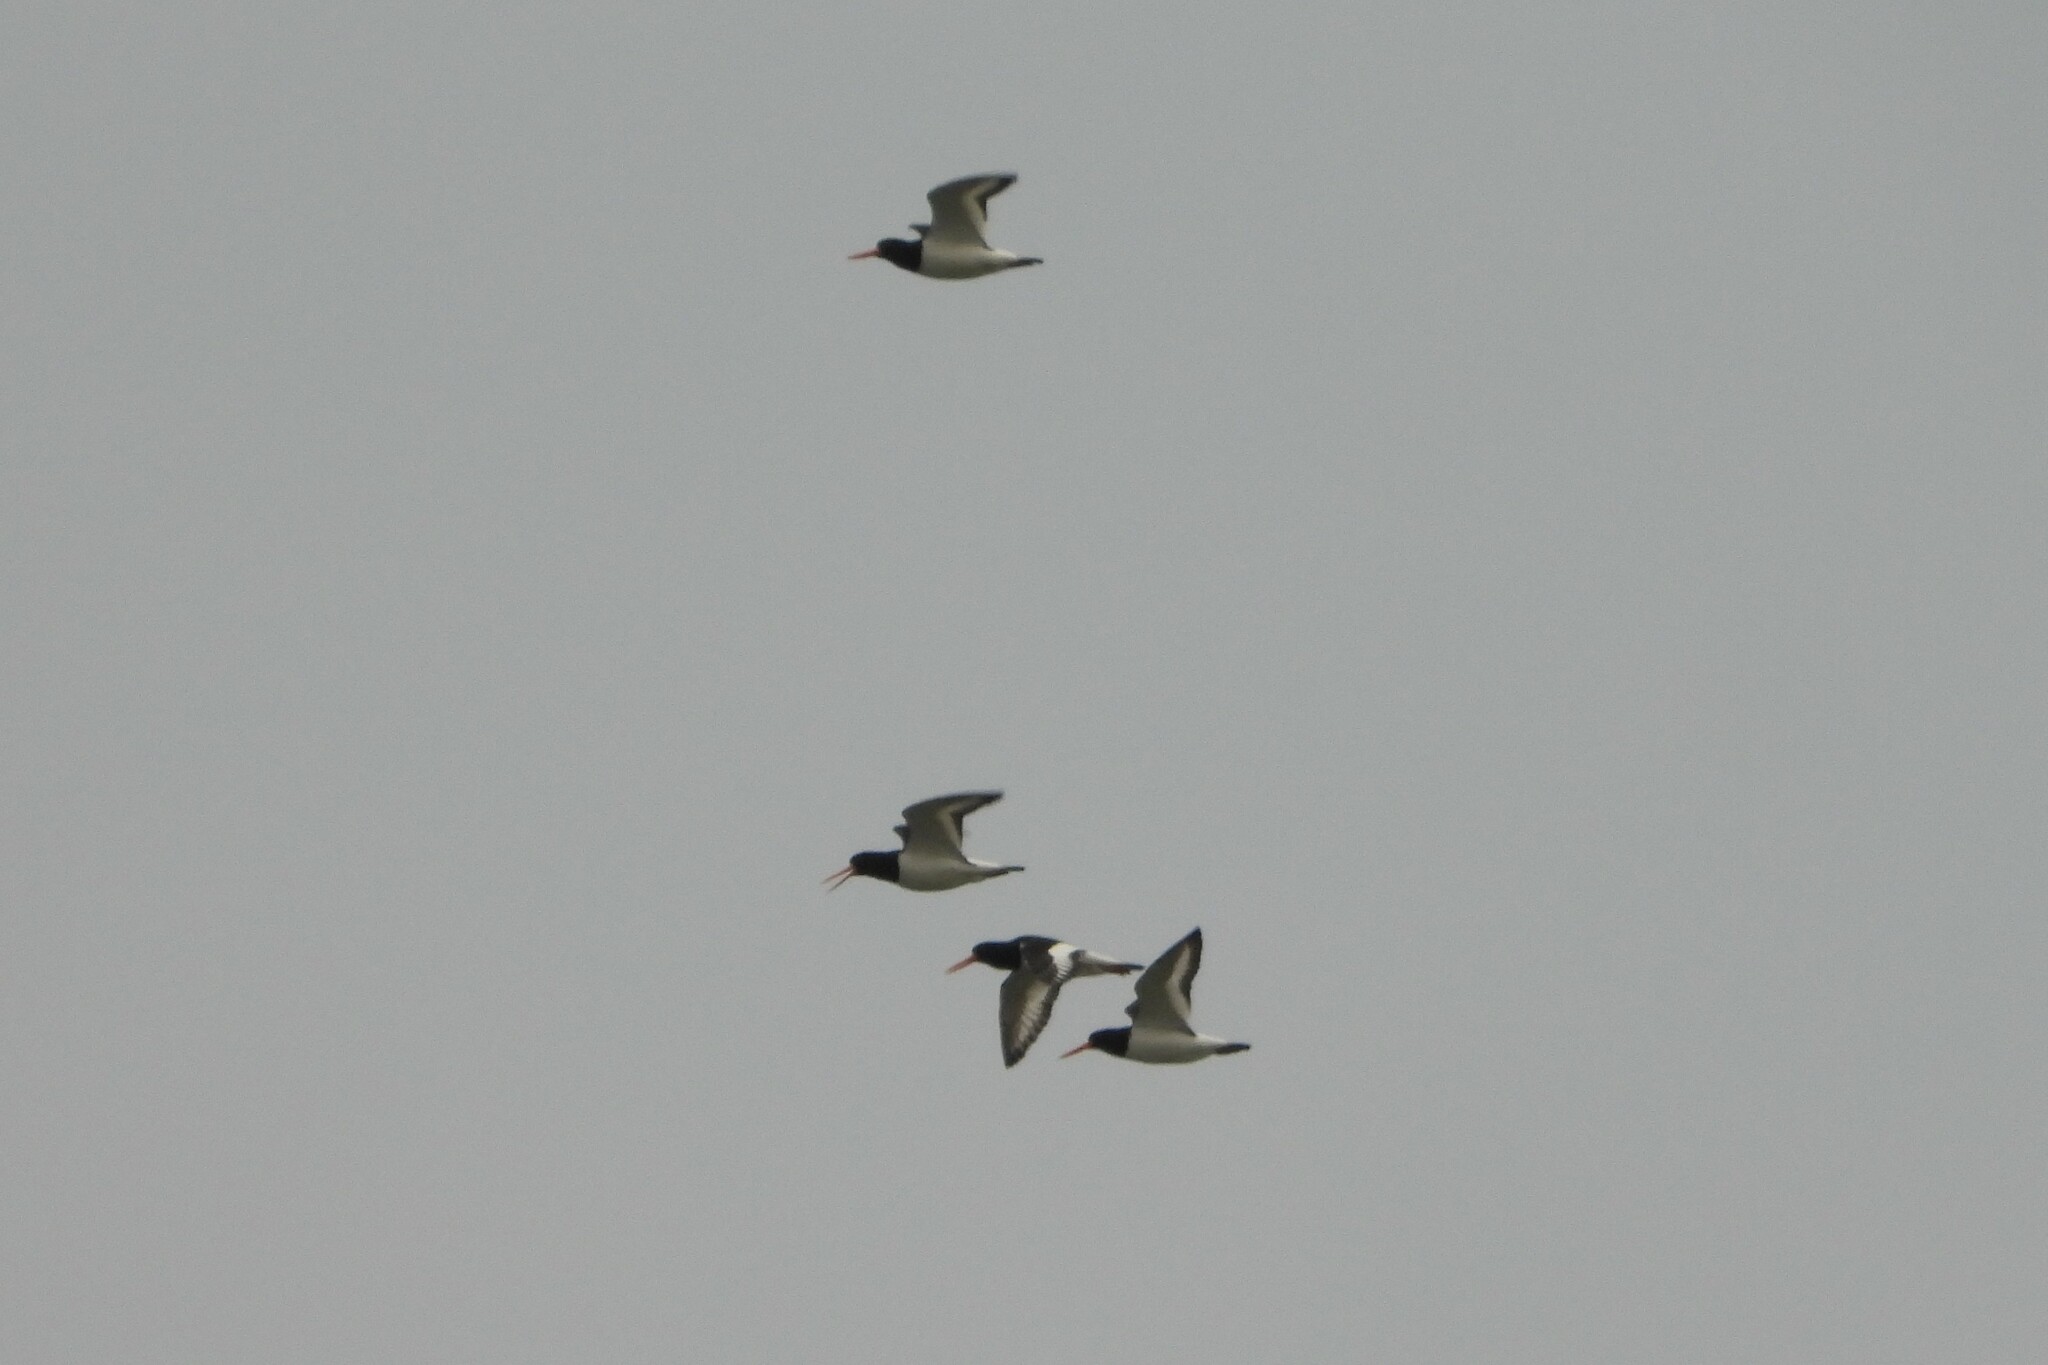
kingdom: Animalia
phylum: Chordata
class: Aves
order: Charadriiformes
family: Haematopodidae
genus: Haematopus
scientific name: Haematopus ostralegus
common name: Eurasian oystercatcher
